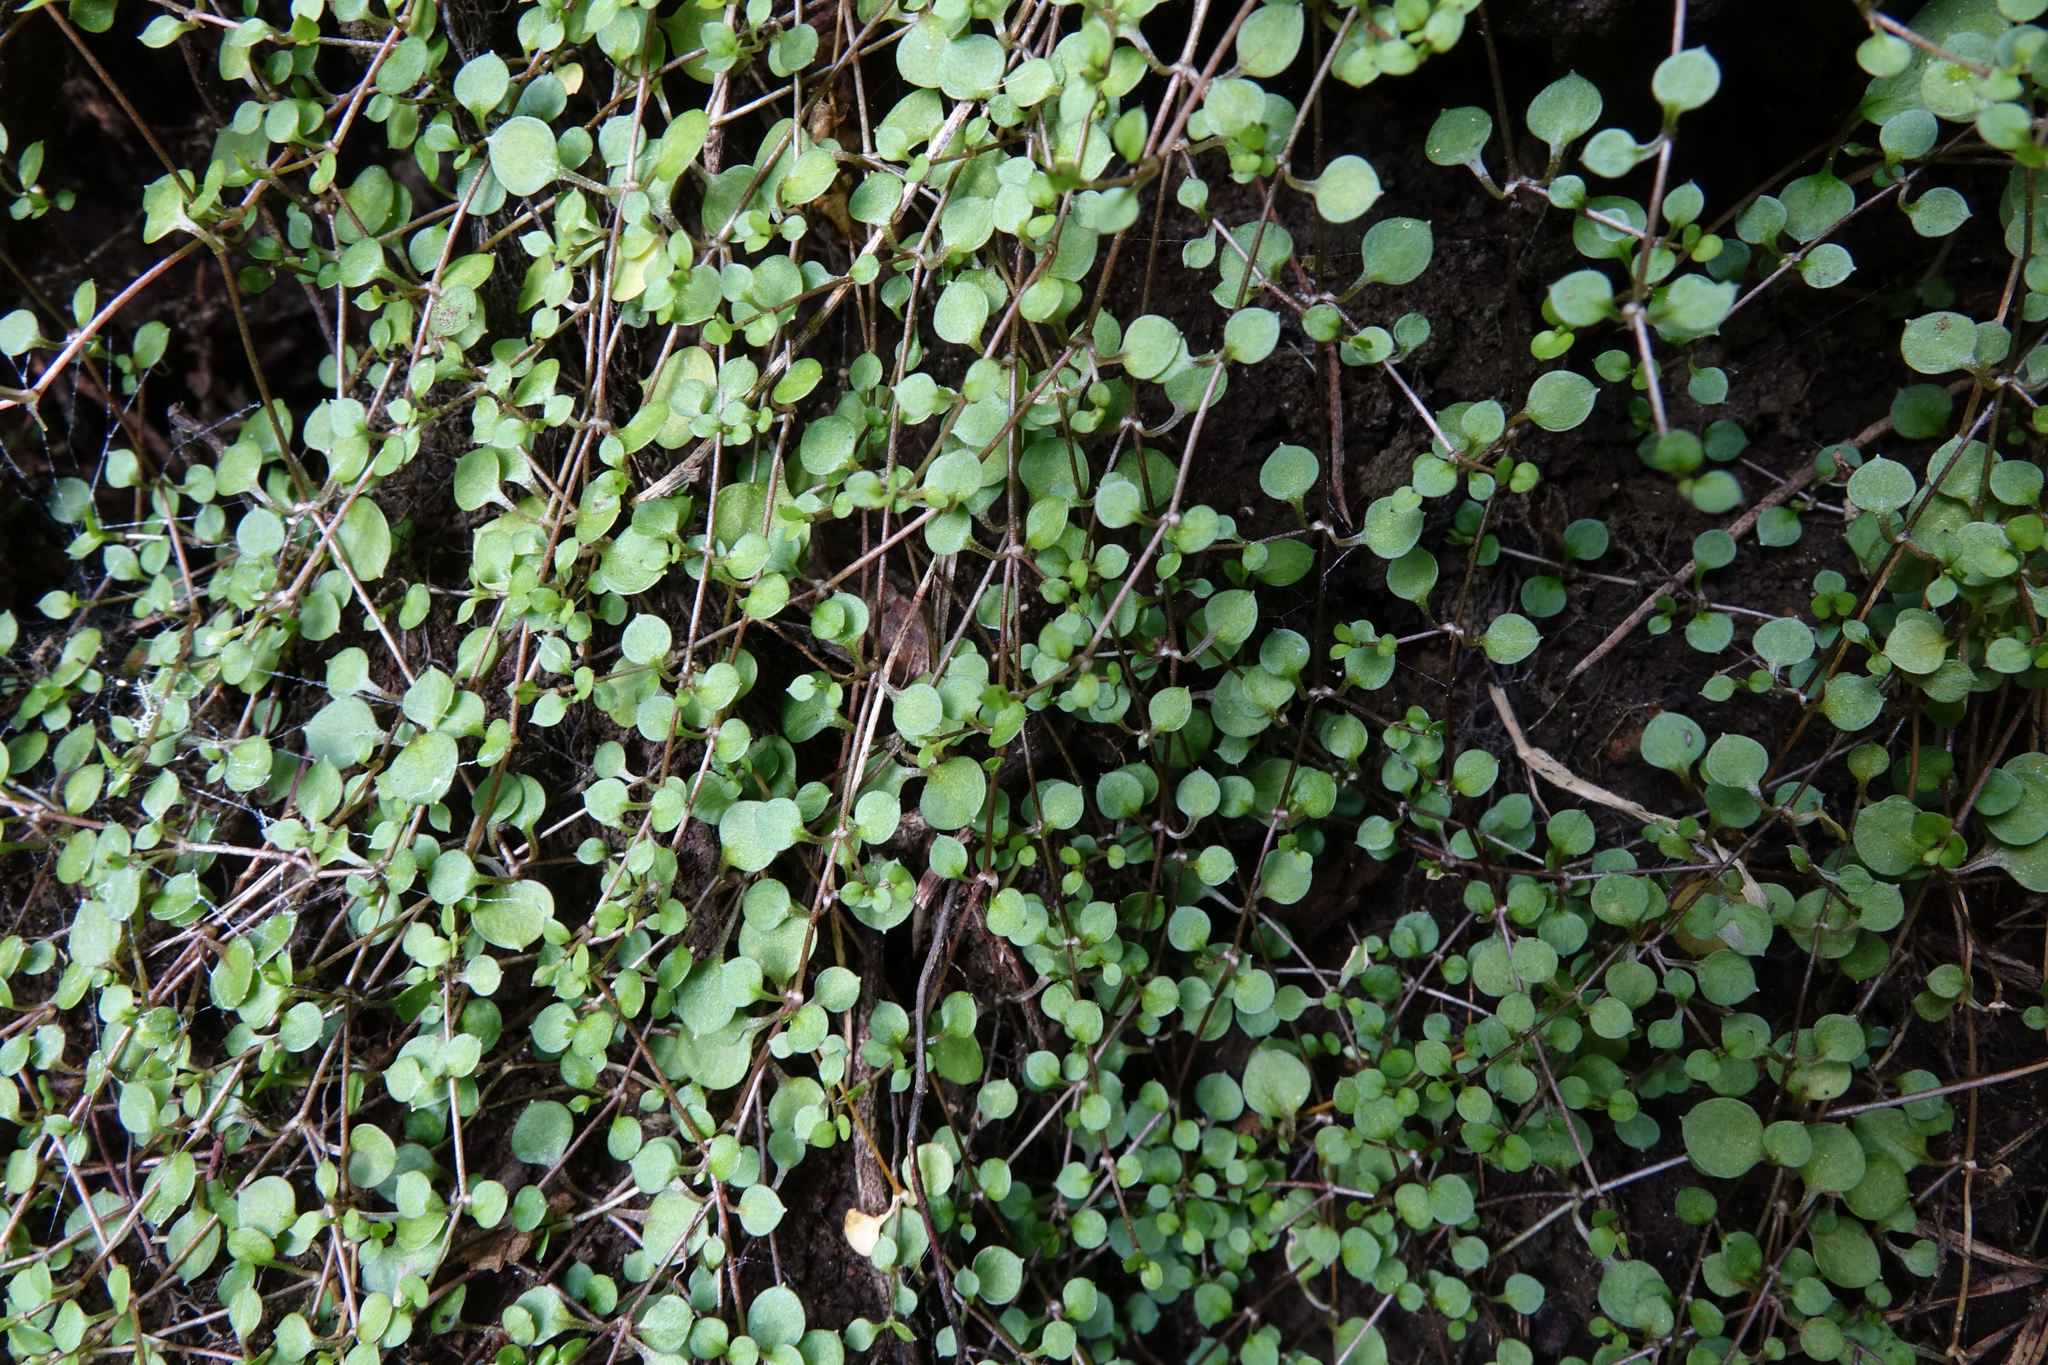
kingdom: Plantae
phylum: Tracheophyta
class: Magnoliopsida
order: Caryophyllales
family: Caryophyllaceae
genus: Stellaria
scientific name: Stellaria parviflora
